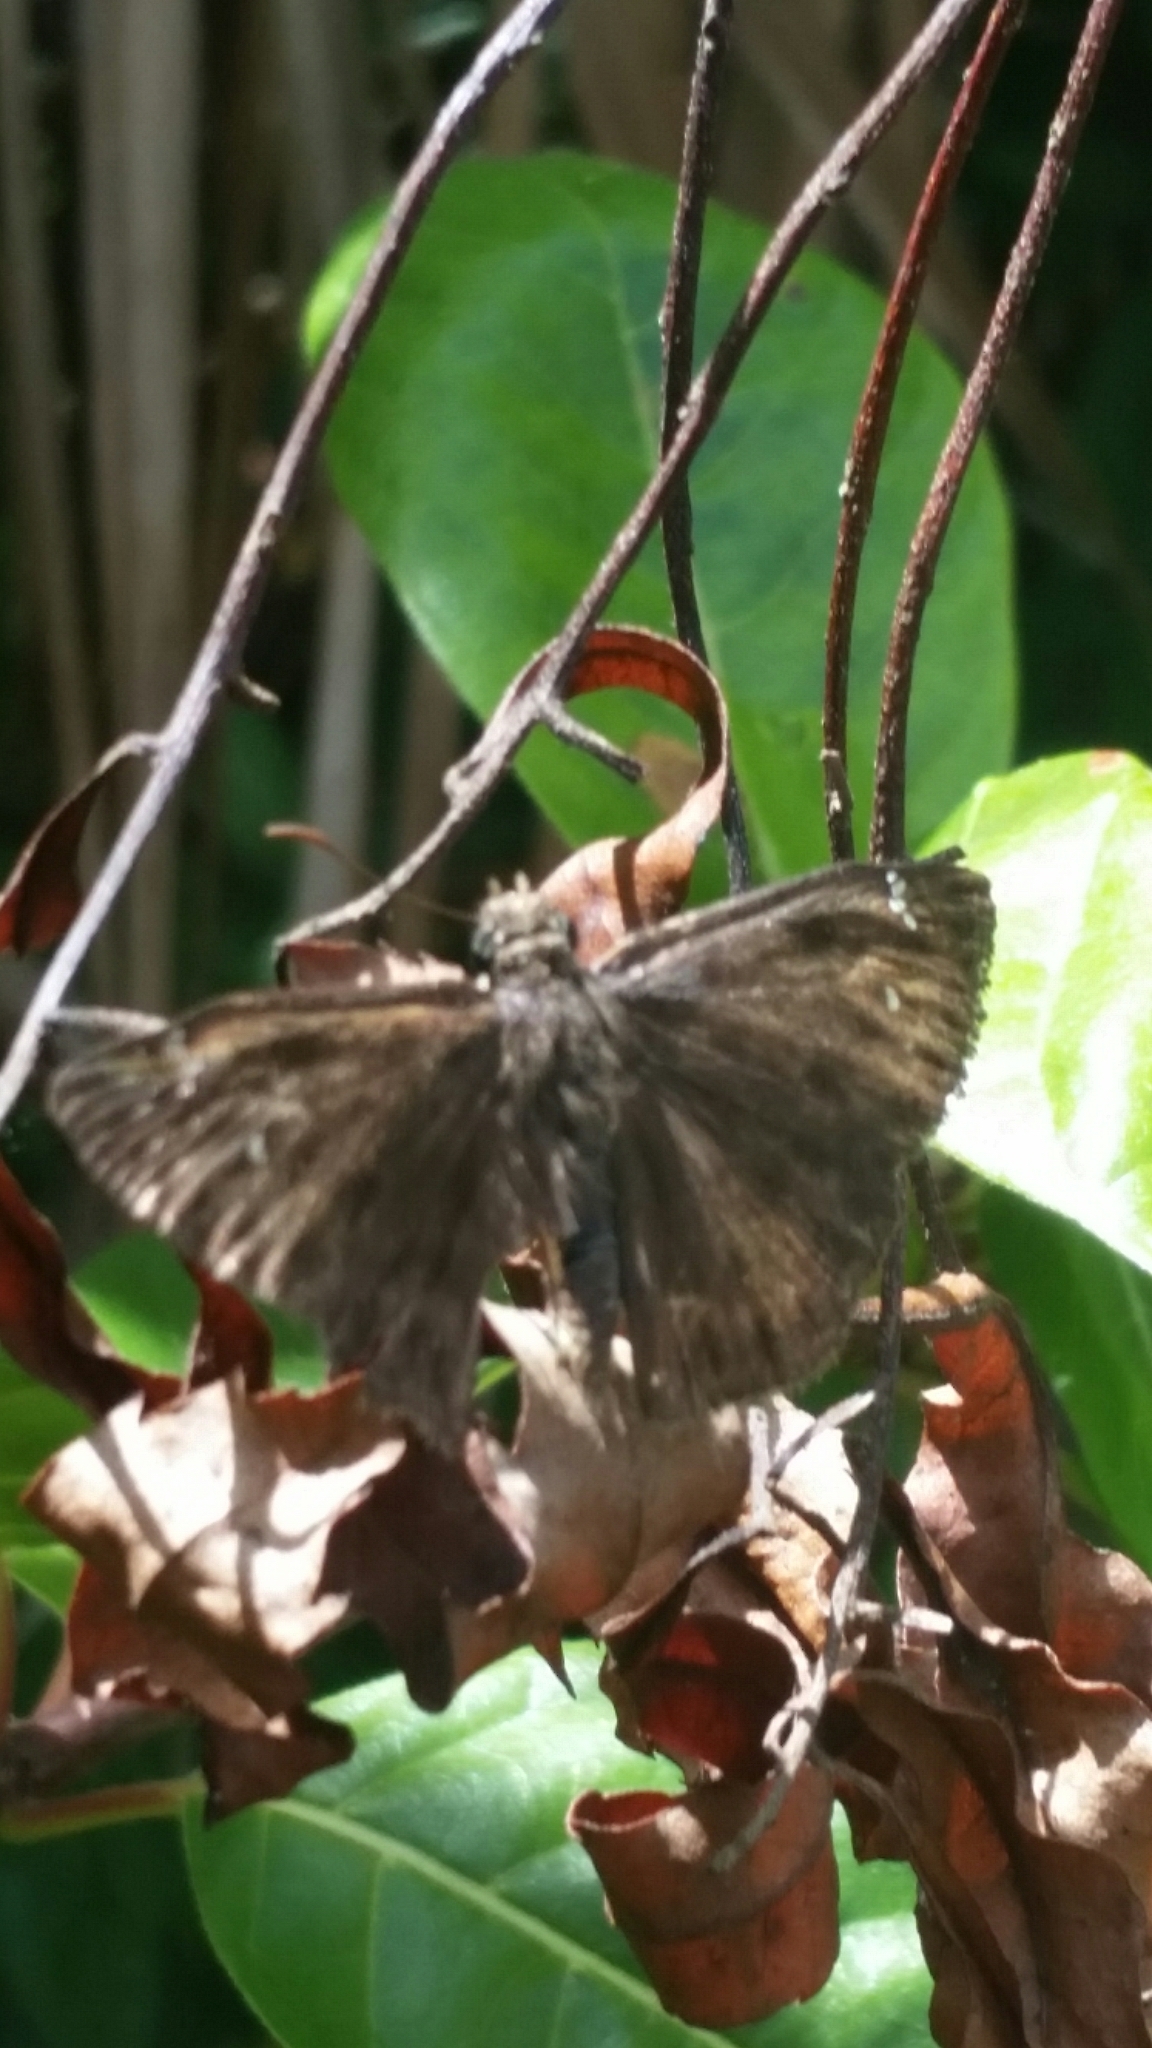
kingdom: Animalia
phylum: Arthropoda
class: Insecta
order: Lepidoptera
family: Hesperiidae
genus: Erynnis
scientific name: Erynnis horatius
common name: Horace's duskywing
